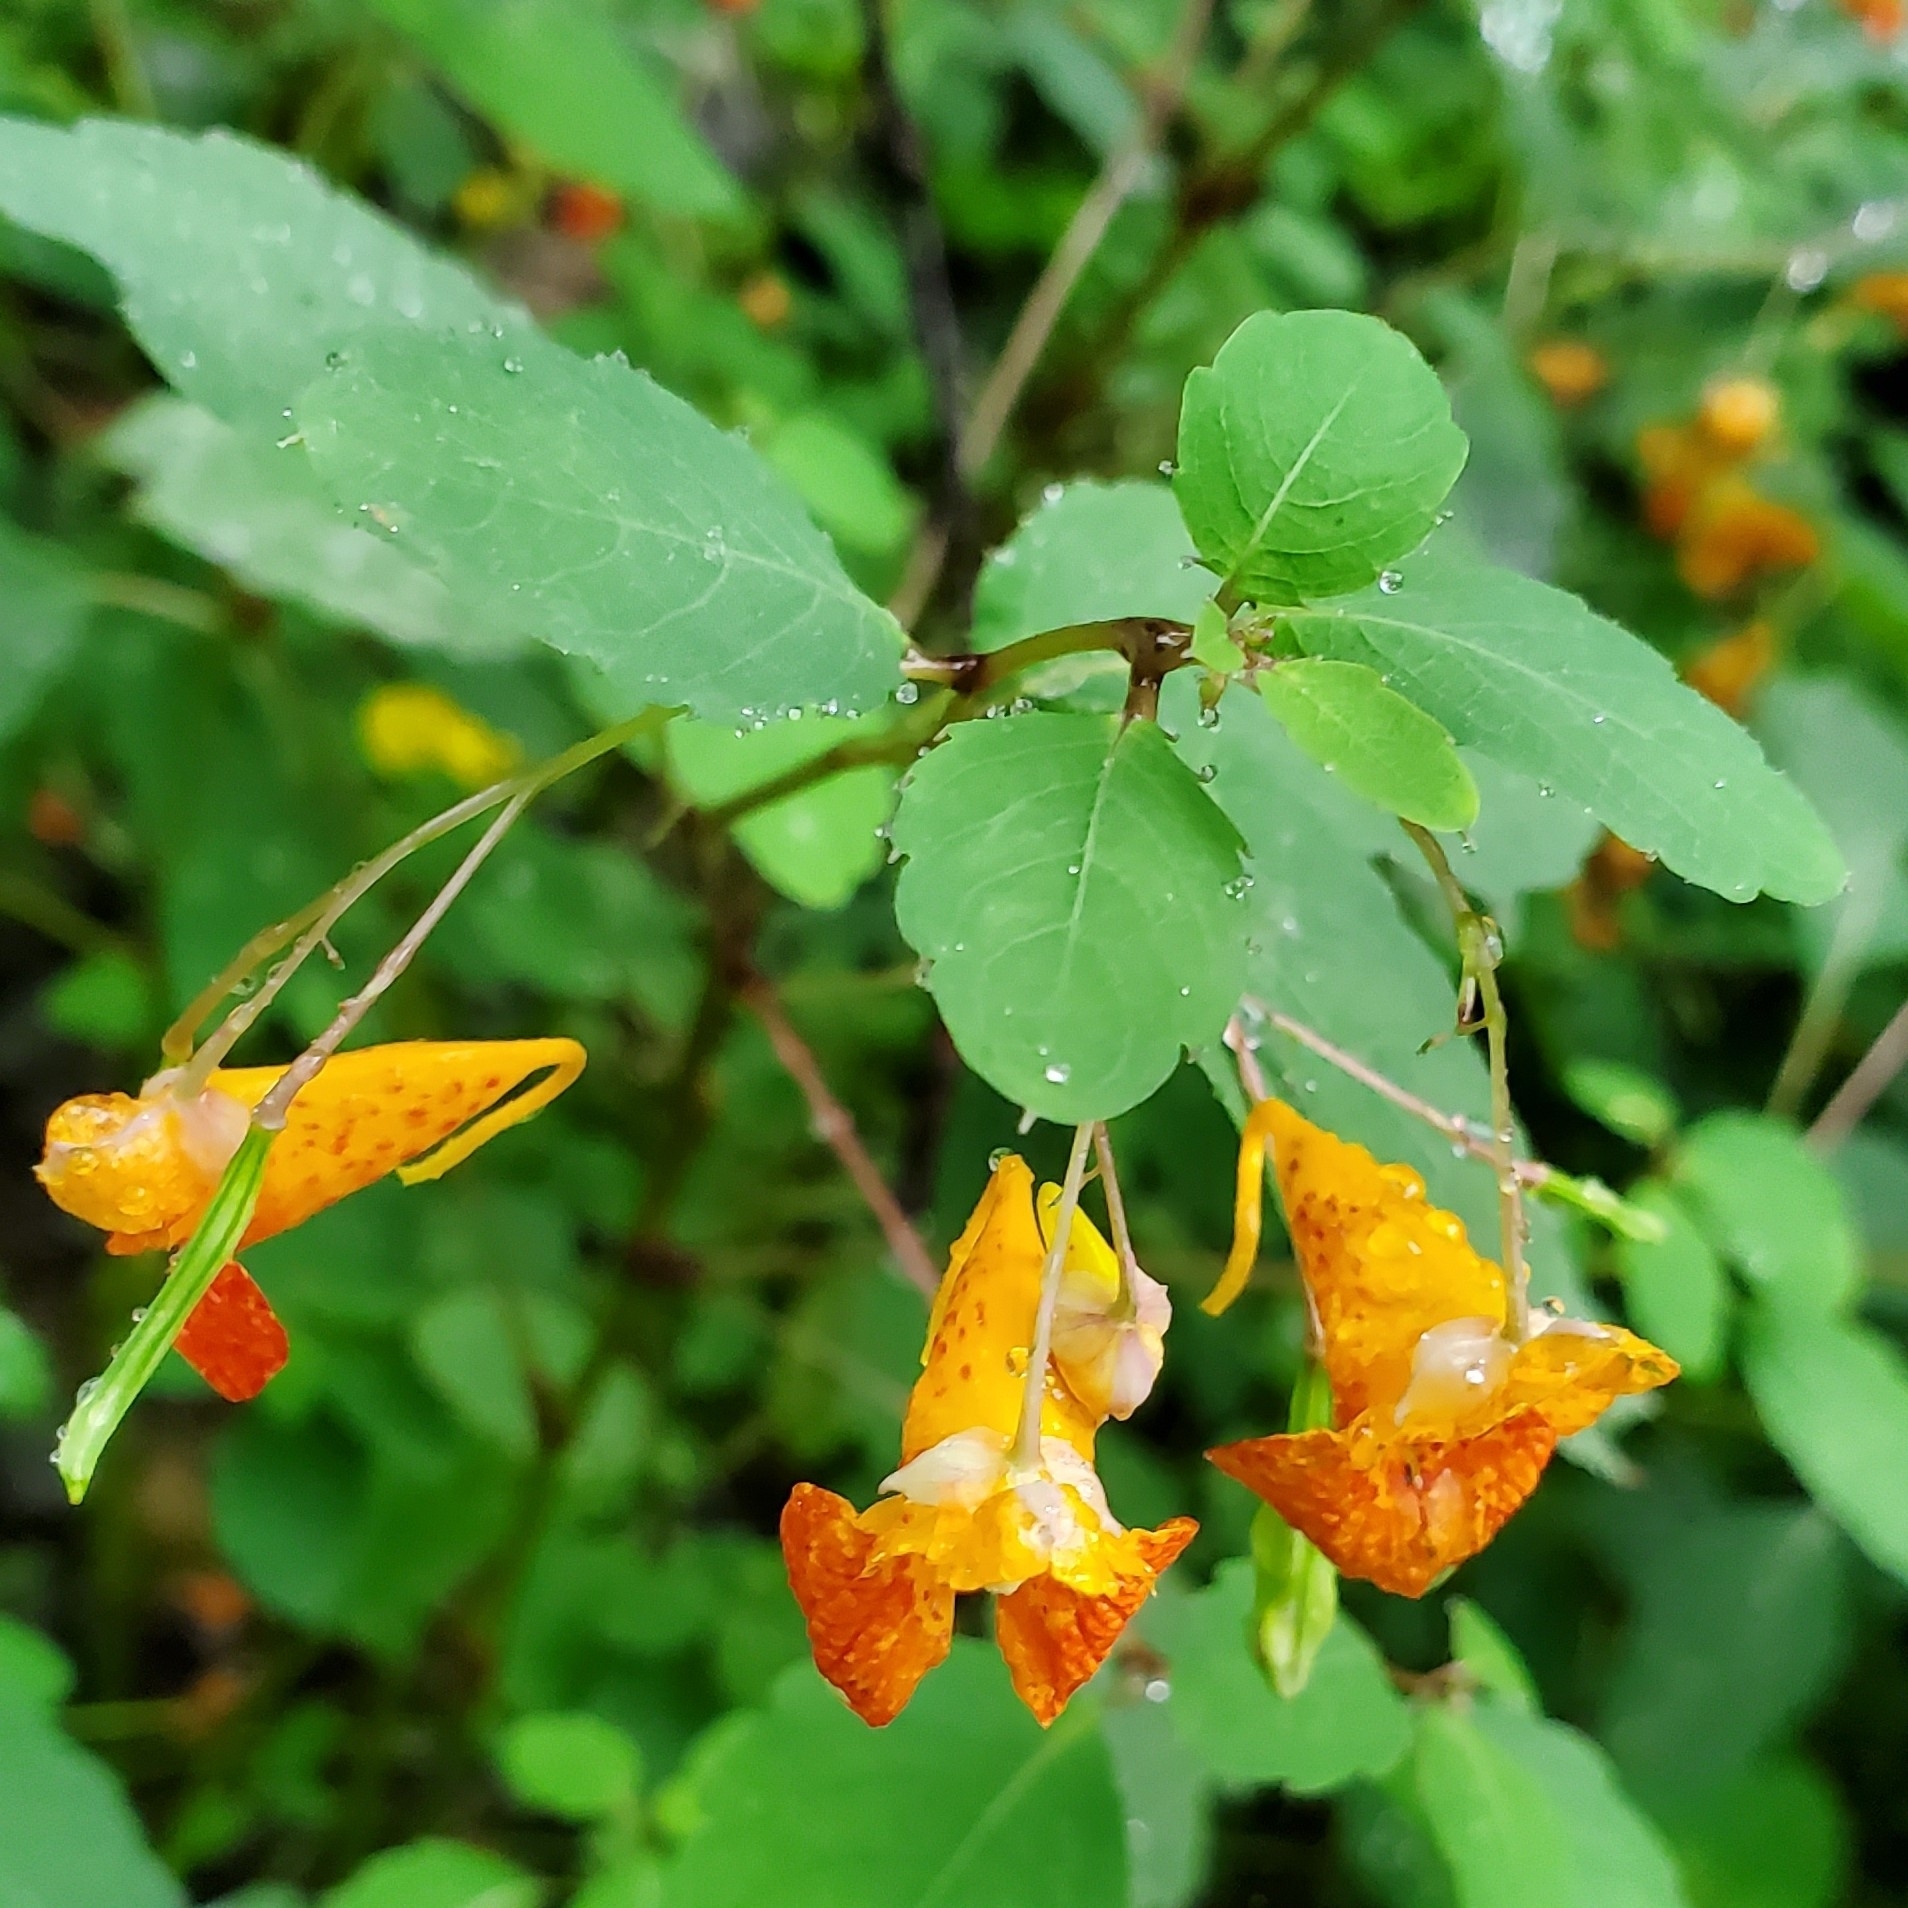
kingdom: Plantae
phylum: Tracheophyta
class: Magnoliopsida
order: Ericales
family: Balsaminaceae
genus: Impatiens
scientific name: Impatiens capensis
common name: Orange balsam
